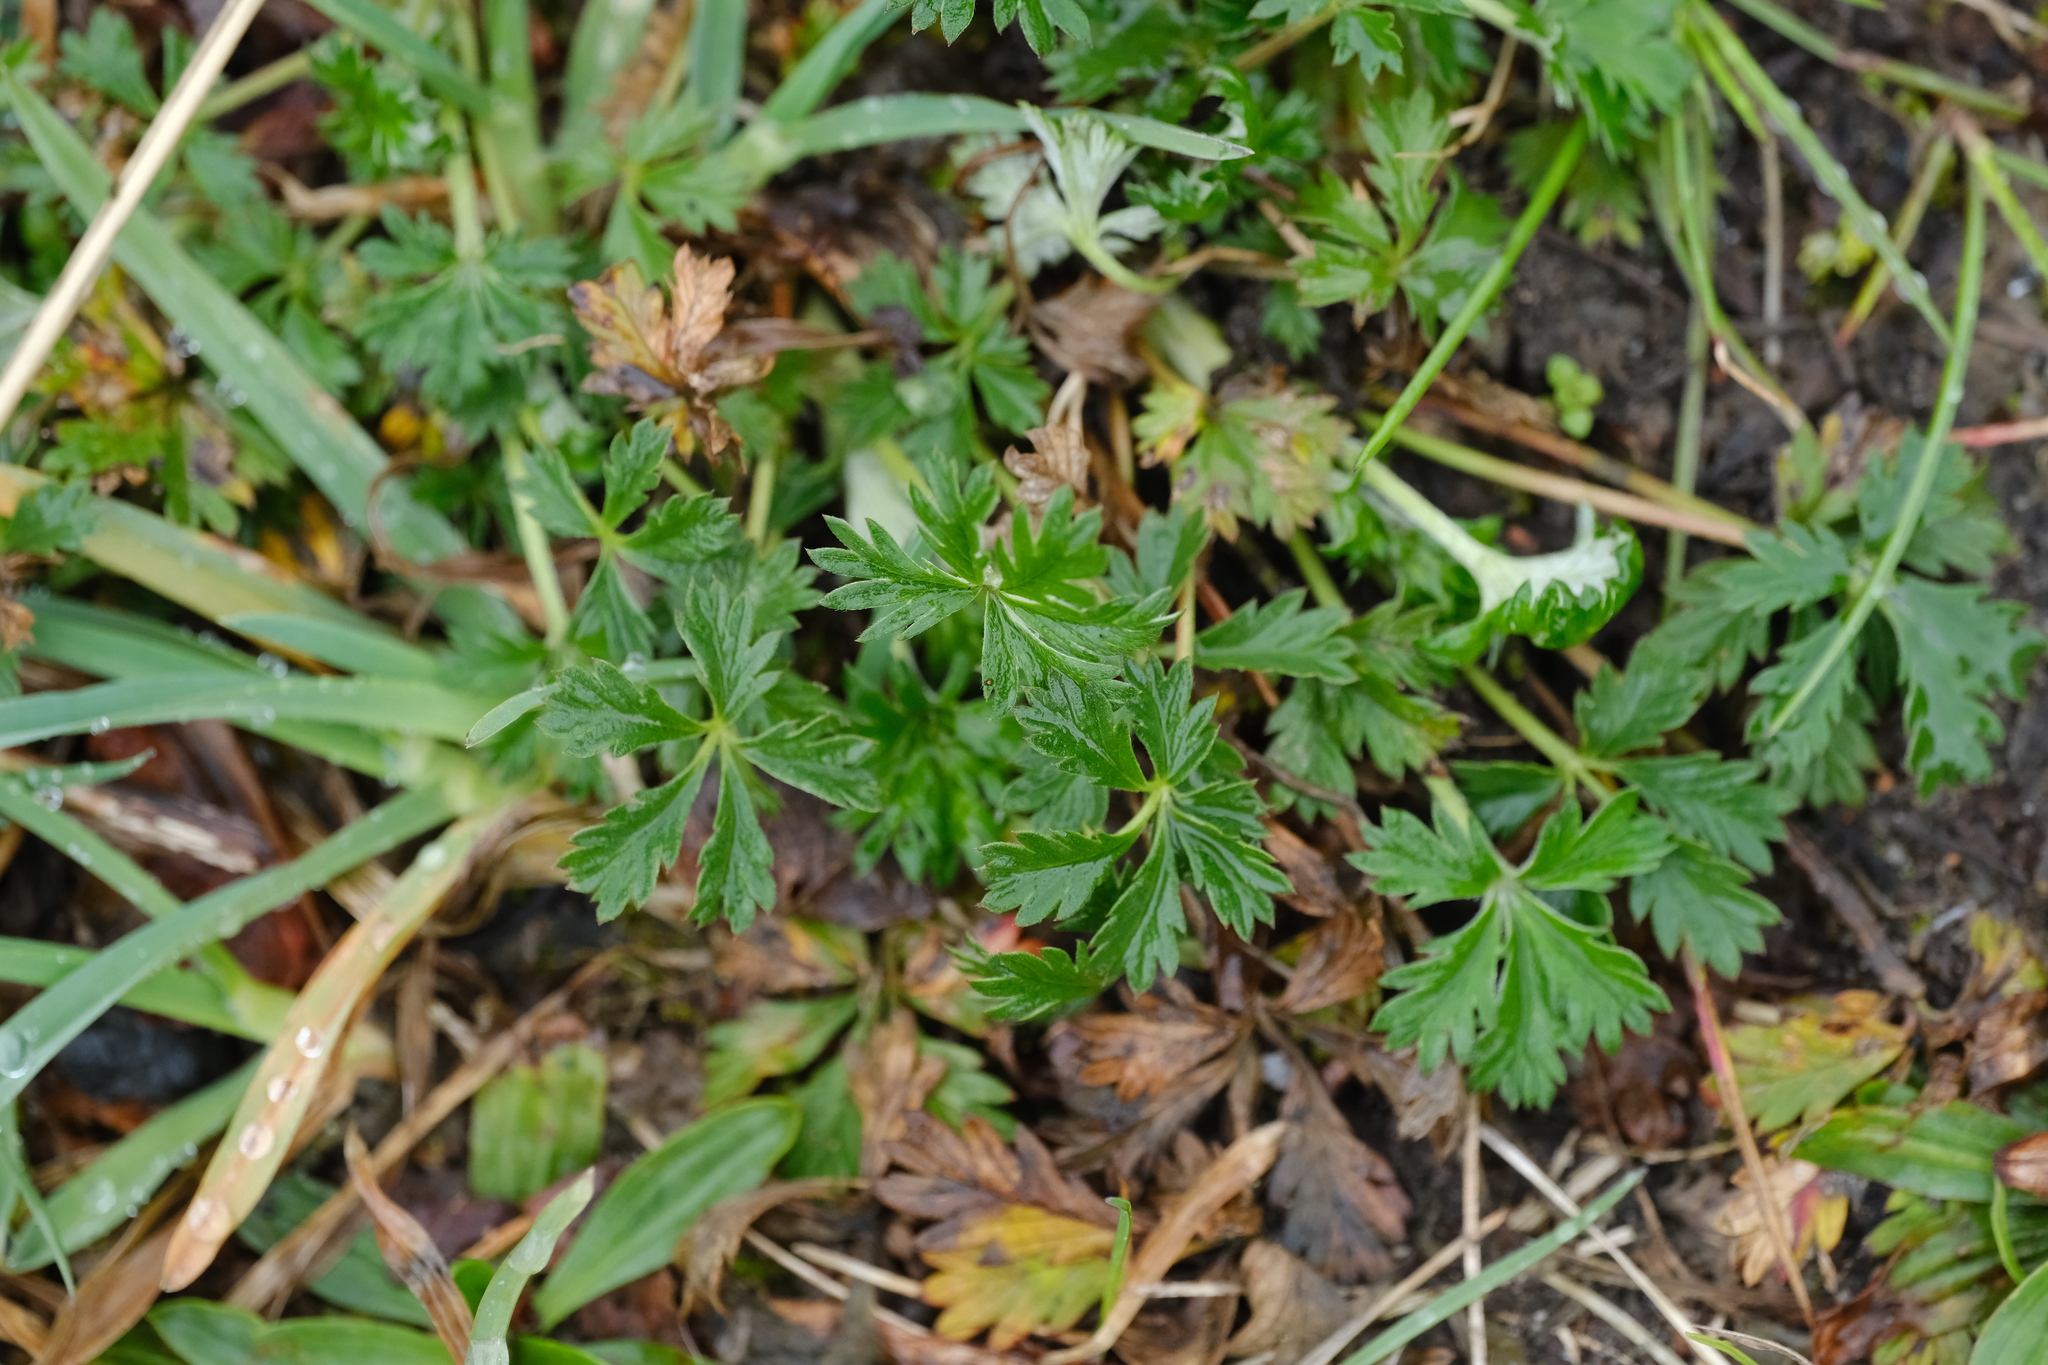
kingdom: Plantae
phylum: Tracheophyta
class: Magnoliopsida
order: Rosales
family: Rosaceae
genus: Potentilla
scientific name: Potentilla argentea
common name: Hoary cinquefoil
